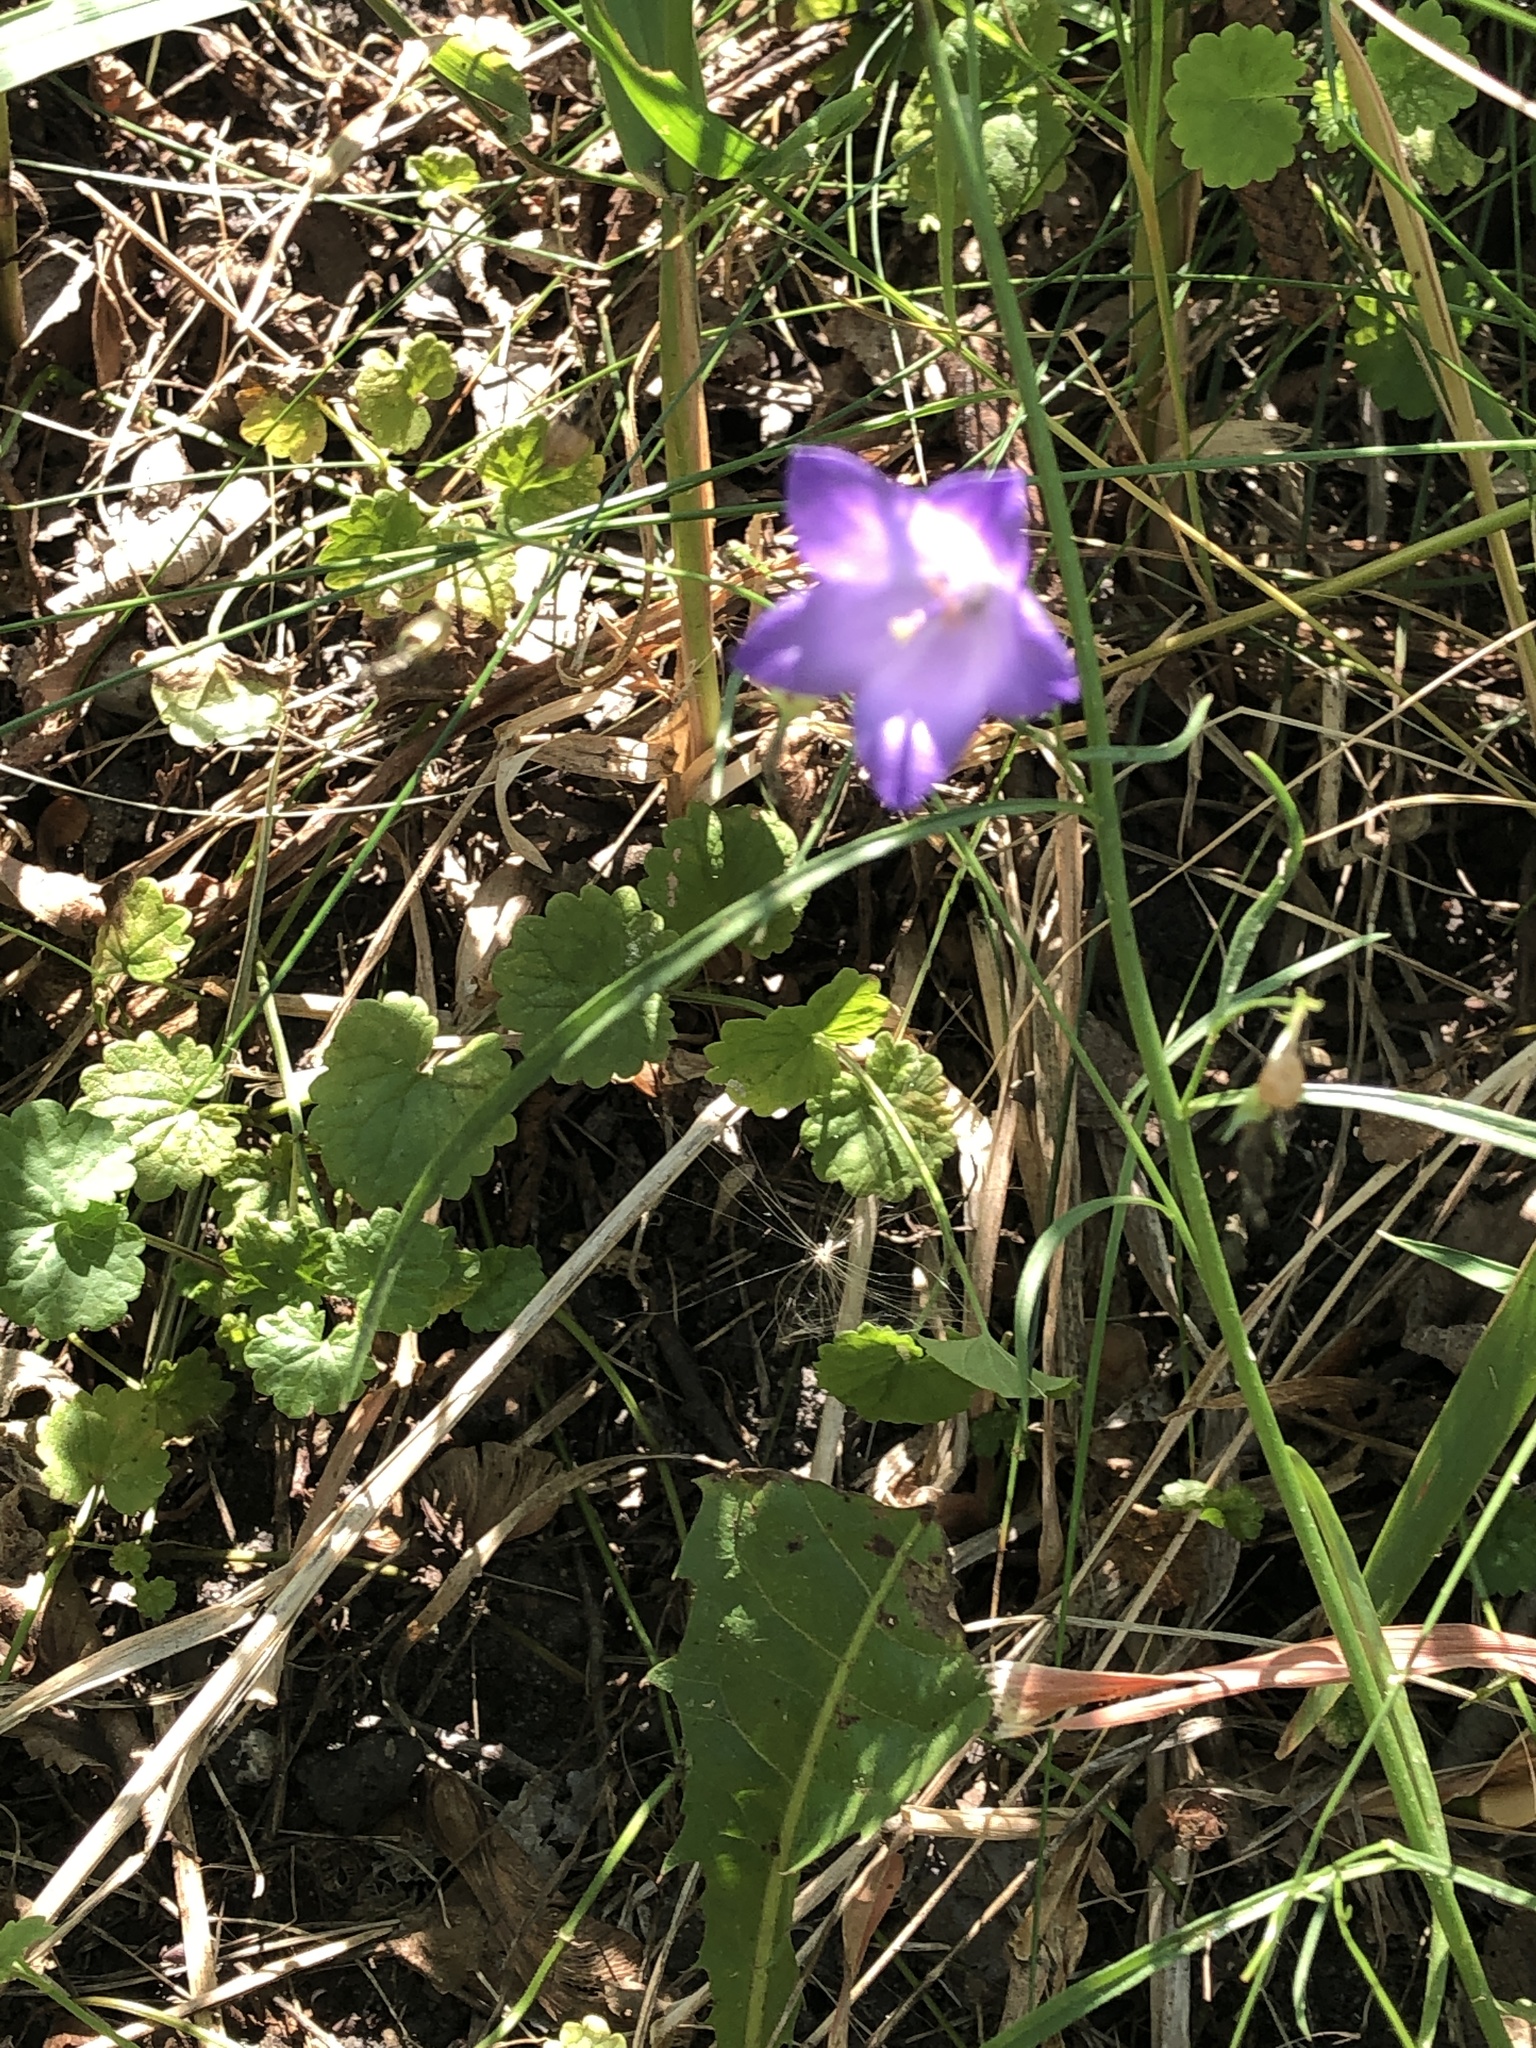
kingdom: Plantae
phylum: Tracheophyta
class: Magnoliopsida
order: Asterales
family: Campanulaceae
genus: Campanula
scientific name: Campanula intercedens
